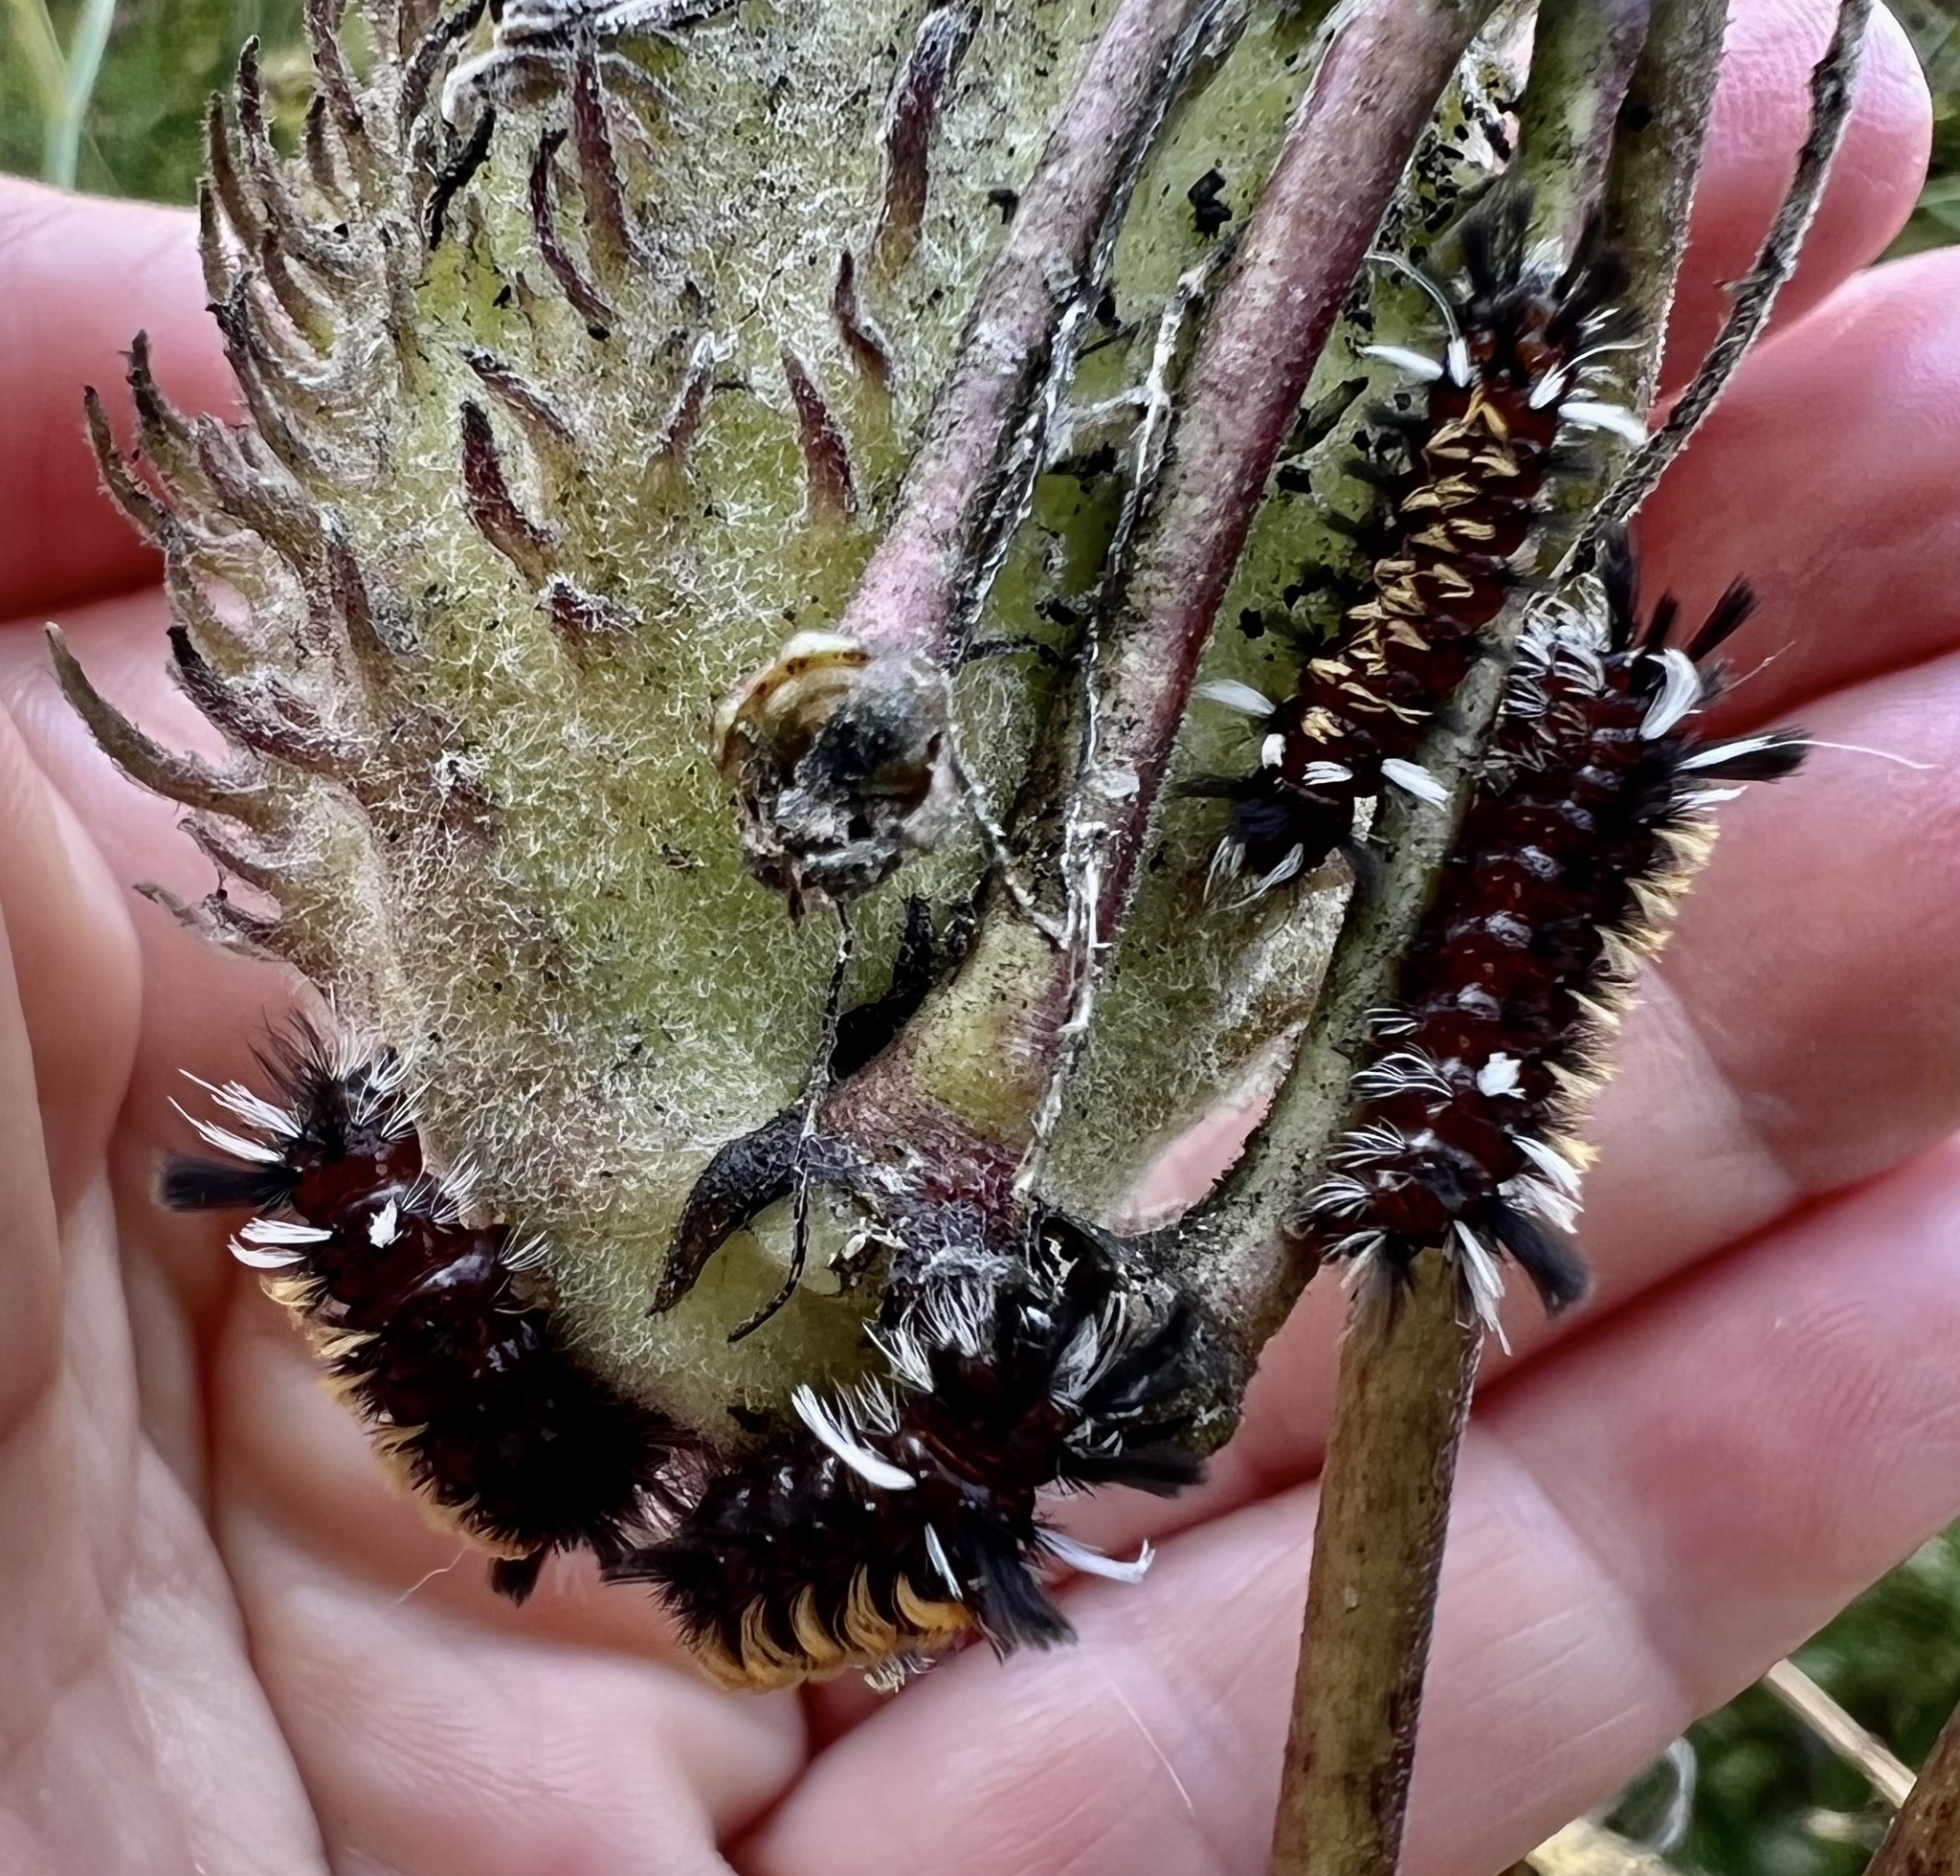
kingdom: Animalia
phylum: Arthropoda
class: Insecta
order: Lepidoptera
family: Erebidae
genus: Euchaetes
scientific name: Euchaetes egle
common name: Milkweed tussock moth
